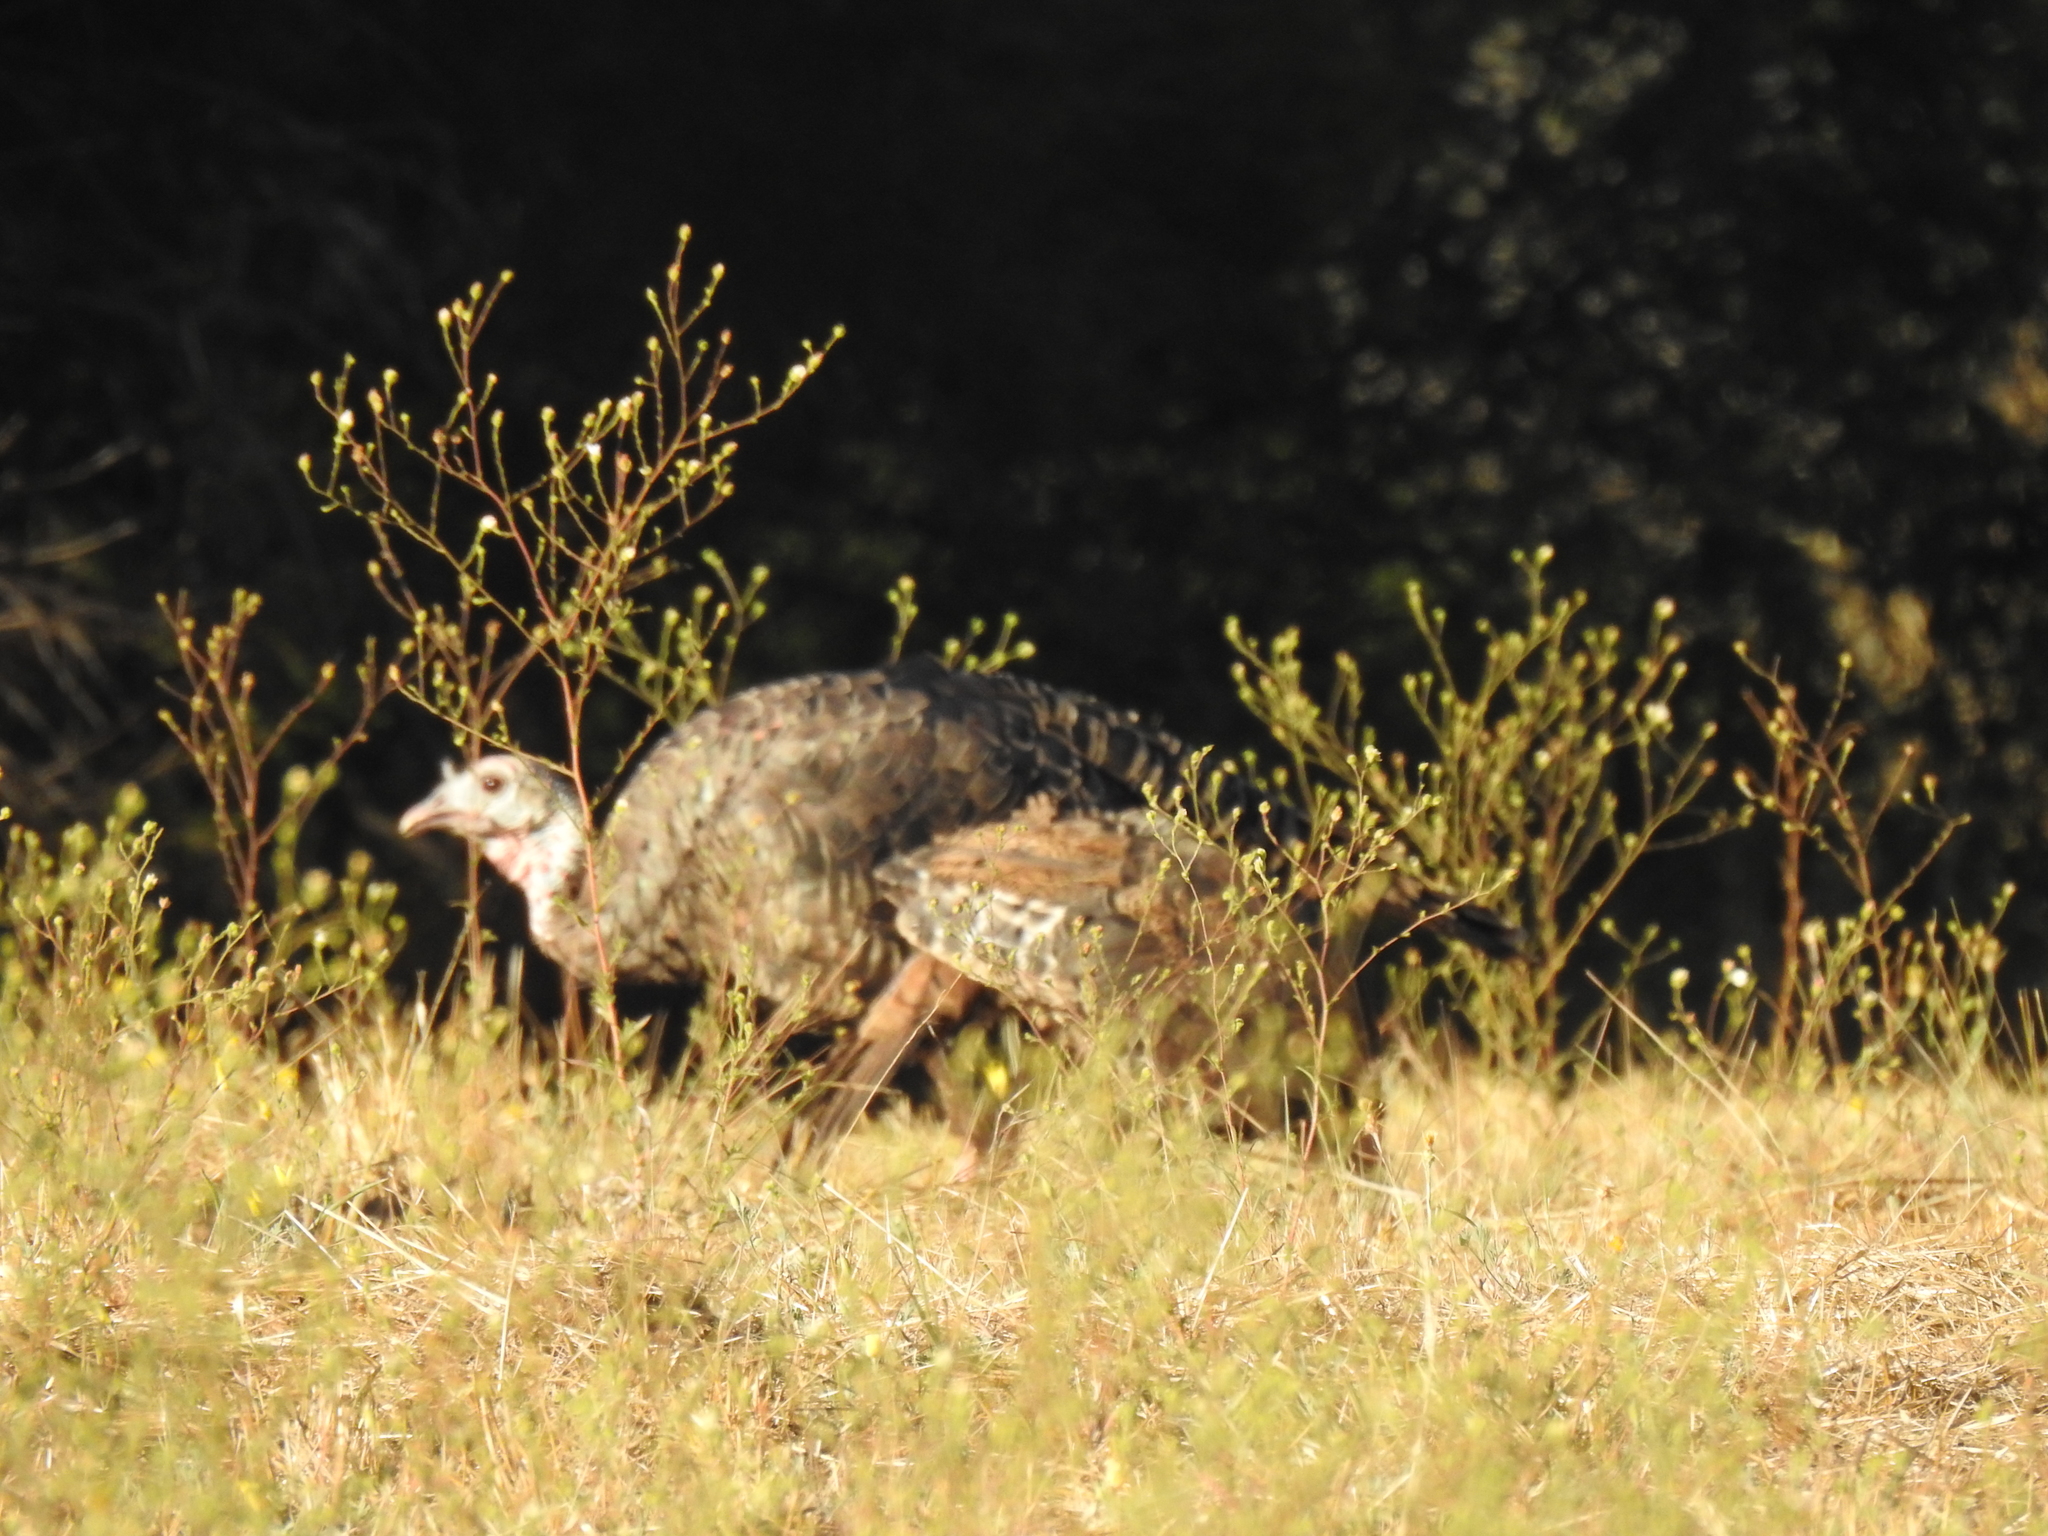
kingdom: Animalia
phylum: Chordata
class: Aves
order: Galliformes
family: Phasianidae
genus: Meleagris
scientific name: Meleagris gallopavo
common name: Wild turkey
